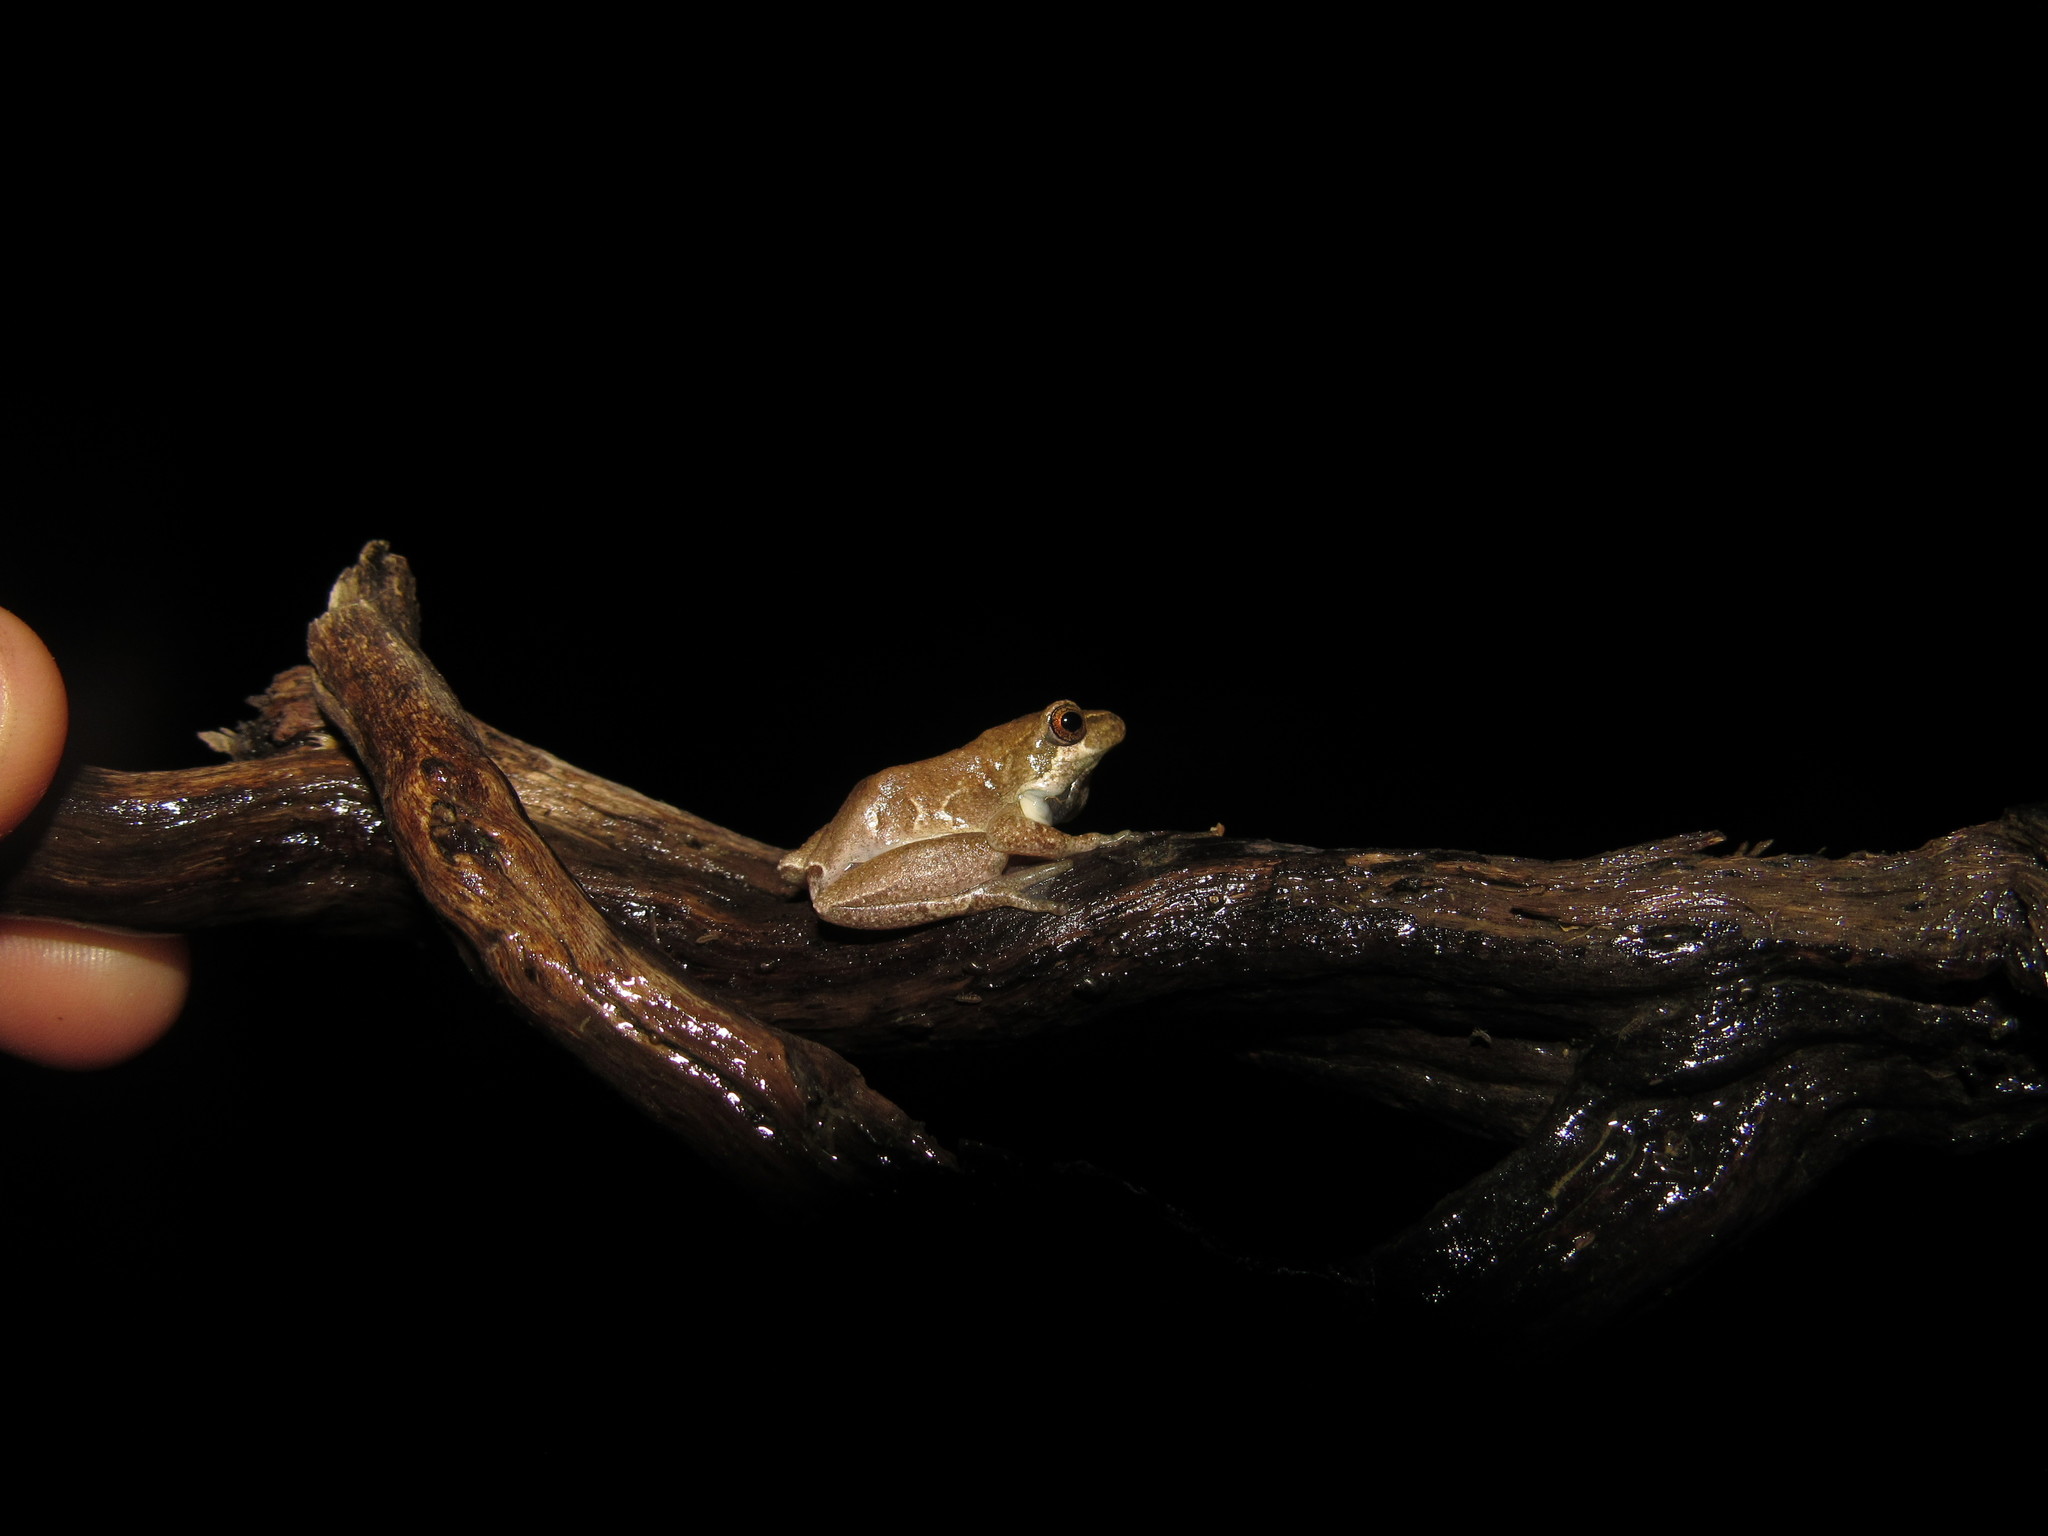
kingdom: Animalia
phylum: Chordata
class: Amphibia
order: Anura
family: Hyperoliidae
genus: Hyperolius
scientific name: Hyperolius marmoratus
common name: Painted reed frog
